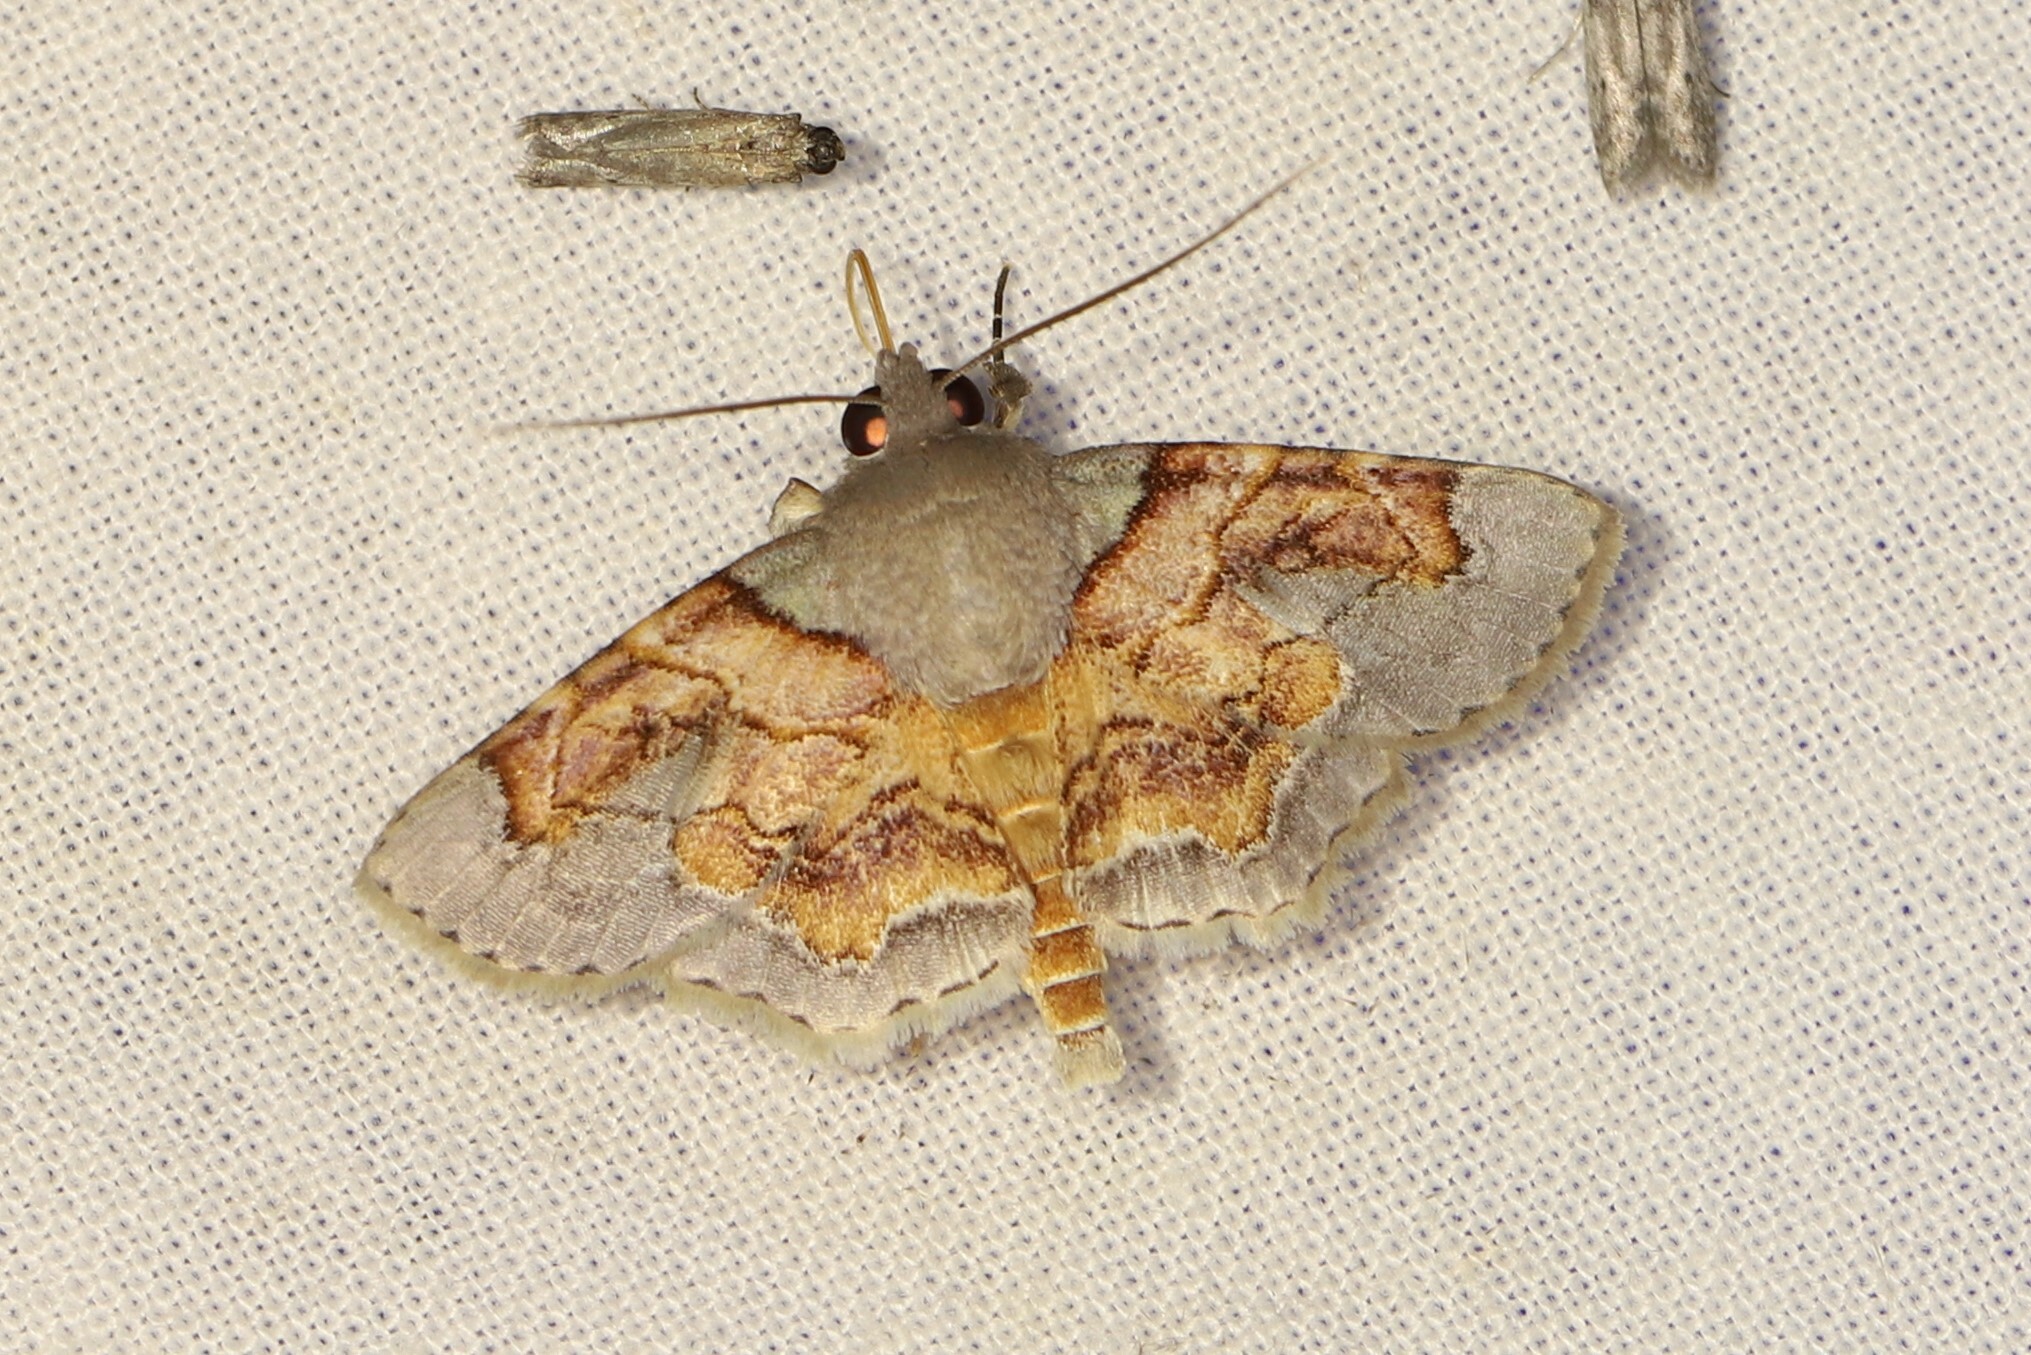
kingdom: Animalia
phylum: Arthropoda
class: Insecta
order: Lepidoptera
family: Erebidae
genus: Dolichosomastis
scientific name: Dolichosomastis bicolorata
